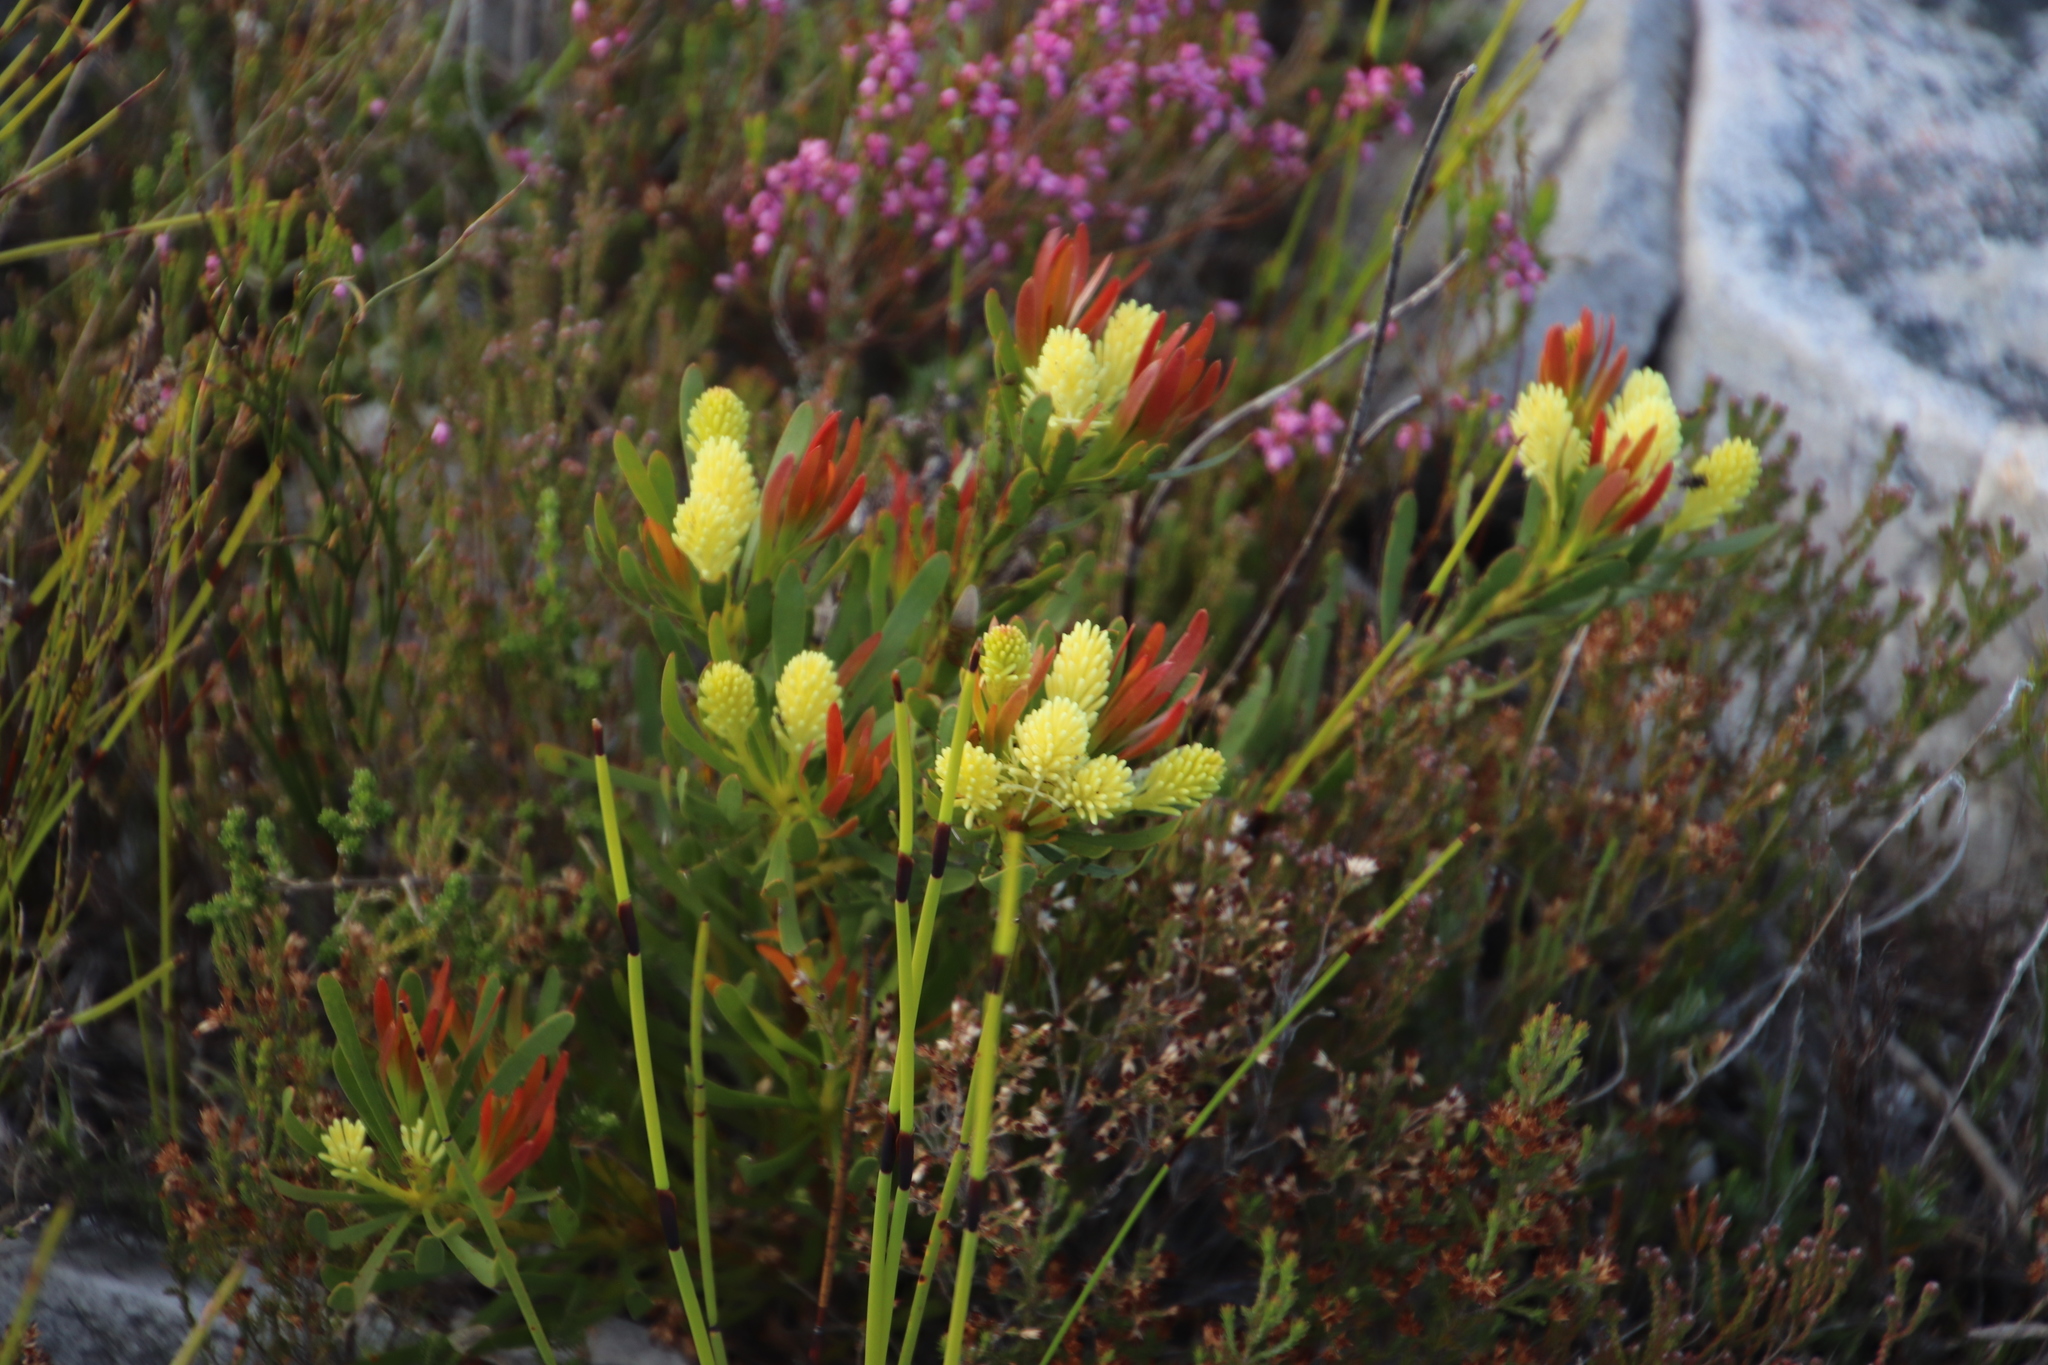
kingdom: Plantae
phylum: Tracheophyta
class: Magnoliopsida
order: Proteales
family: Proteaceae
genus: Aulax
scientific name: Aulax umbellata
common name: Broad-leaf featherbush
